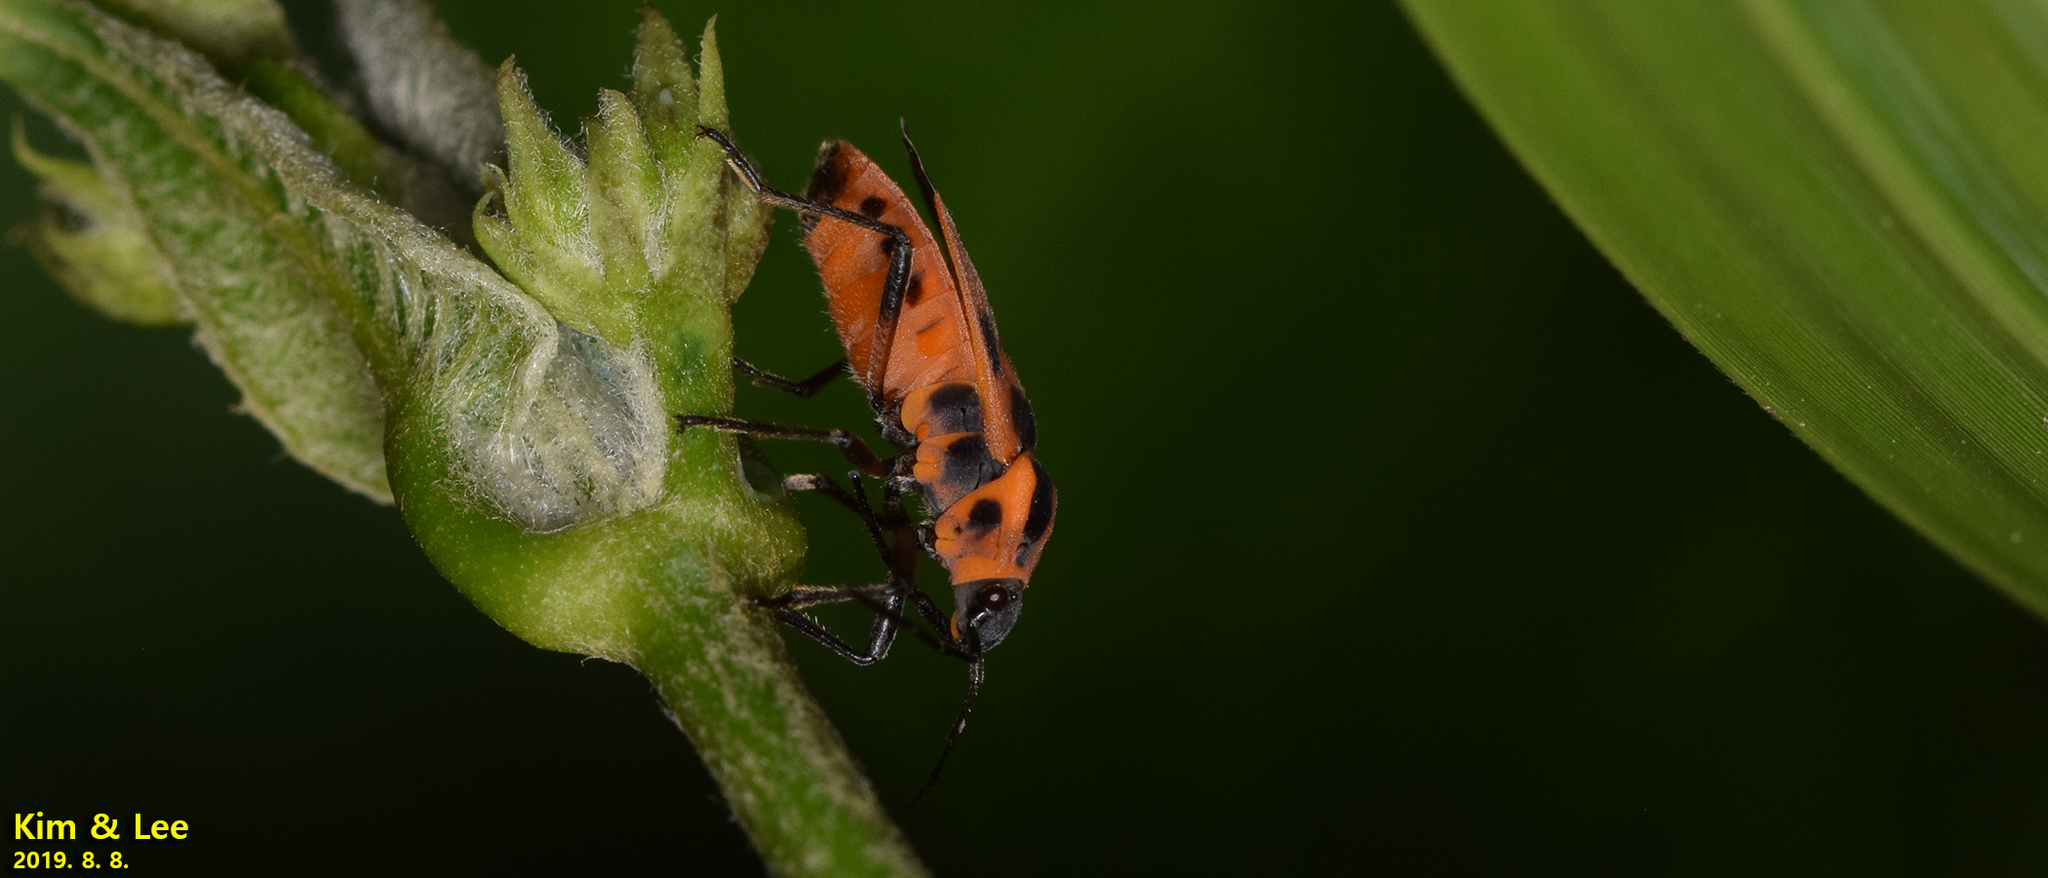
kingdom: Animalia
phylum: Arthropoda
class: Insecta
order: Hemiptera
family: Lygaeidae
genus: Tropidothorax
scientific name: Tropidothorax cruciger
